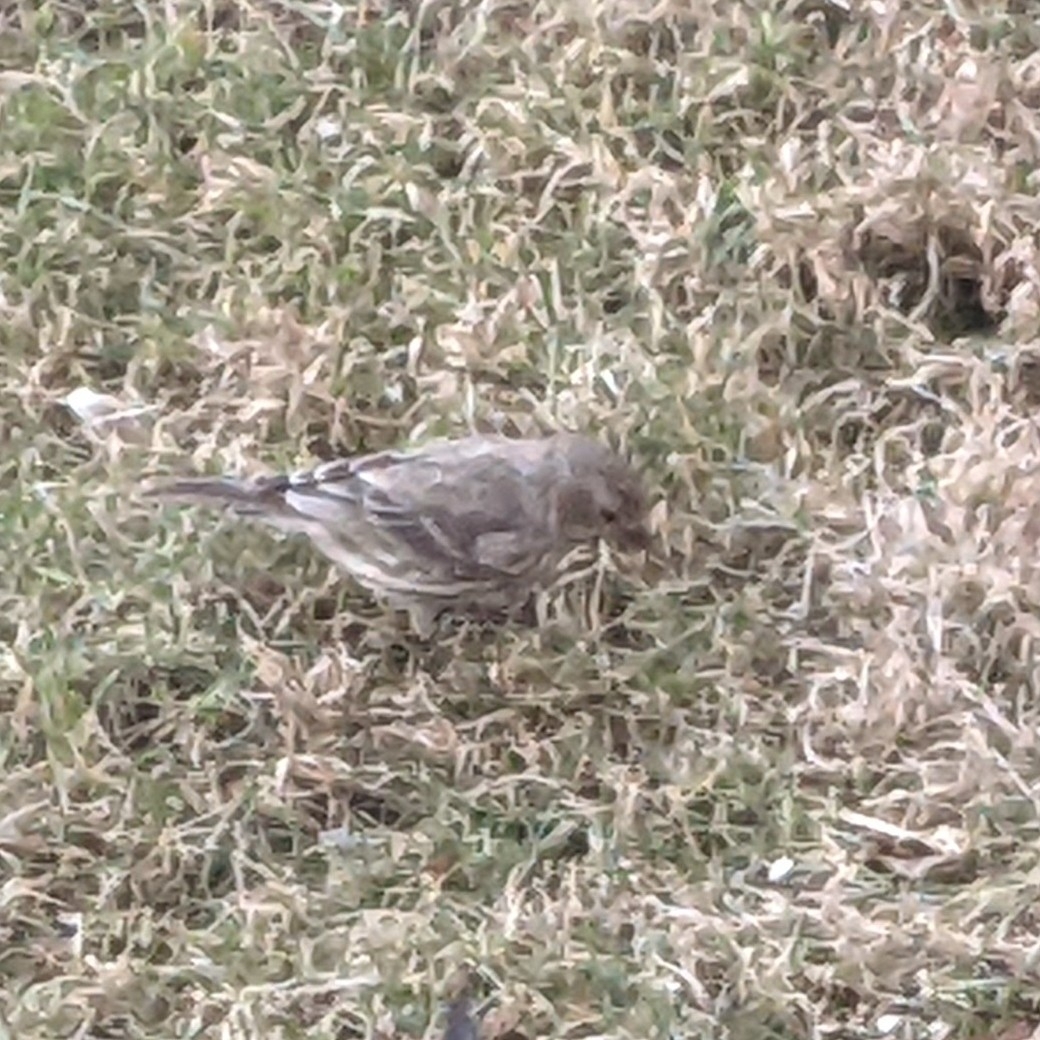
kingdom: Animalia
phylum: Chordata
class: Aves
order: Passeriformes
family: Fringillidae
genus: Haemorhous
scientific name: Haemorhous mexicanus
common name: House finch
